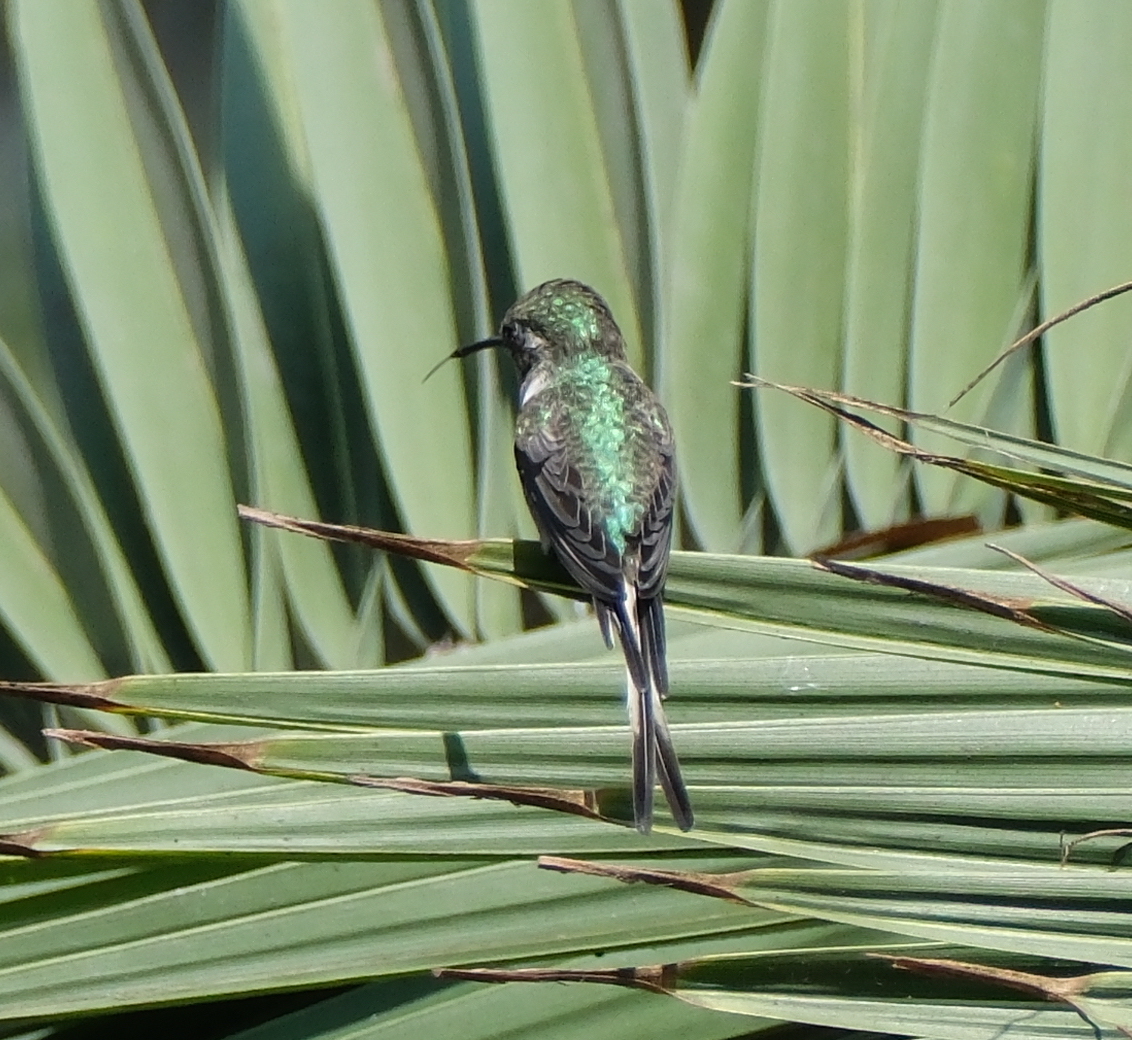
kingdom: Animalia
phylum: Chordata
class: Aves
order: Apodiformes
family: Trochilidae
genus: Thaumastura
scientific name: Thaumastura cora
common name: Peruvian sheartail
